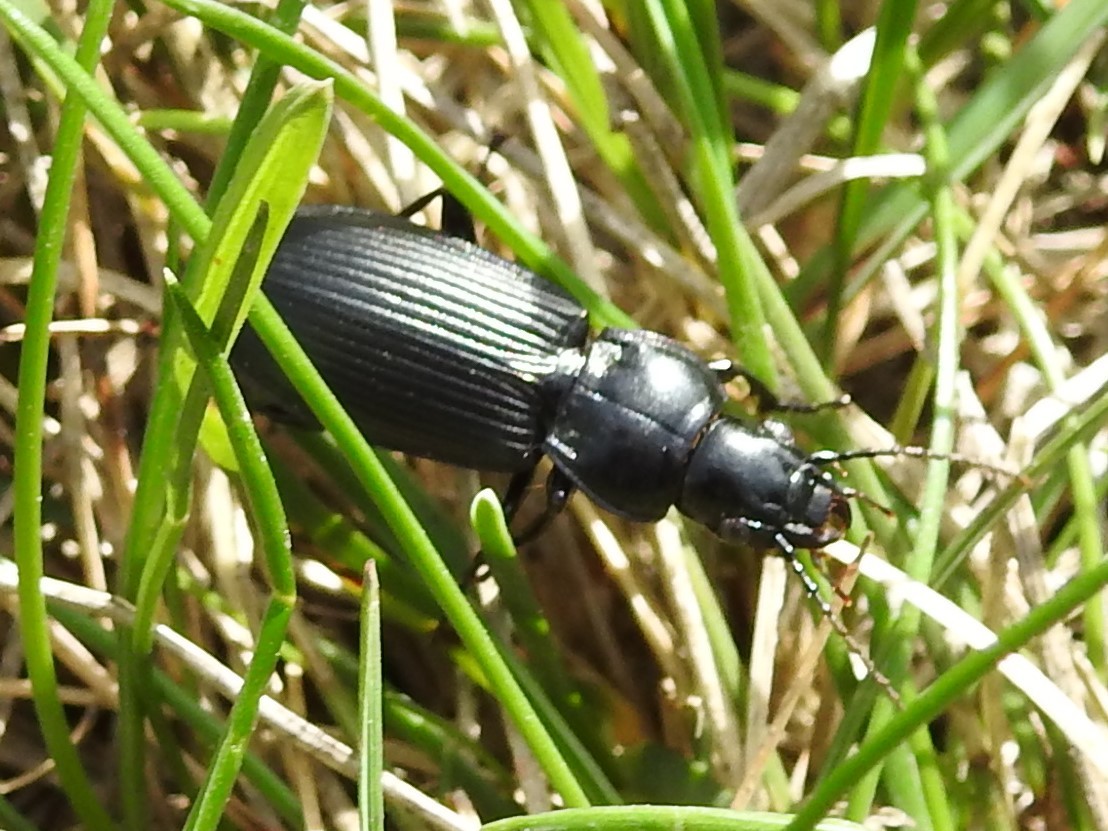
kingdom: Animalia
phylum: Arthropoda
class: Insecta
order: Coleoptera
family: Carabidae
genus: Pterostichus
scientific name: Pterostichus melanarius
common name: European dark harp ground beetle
